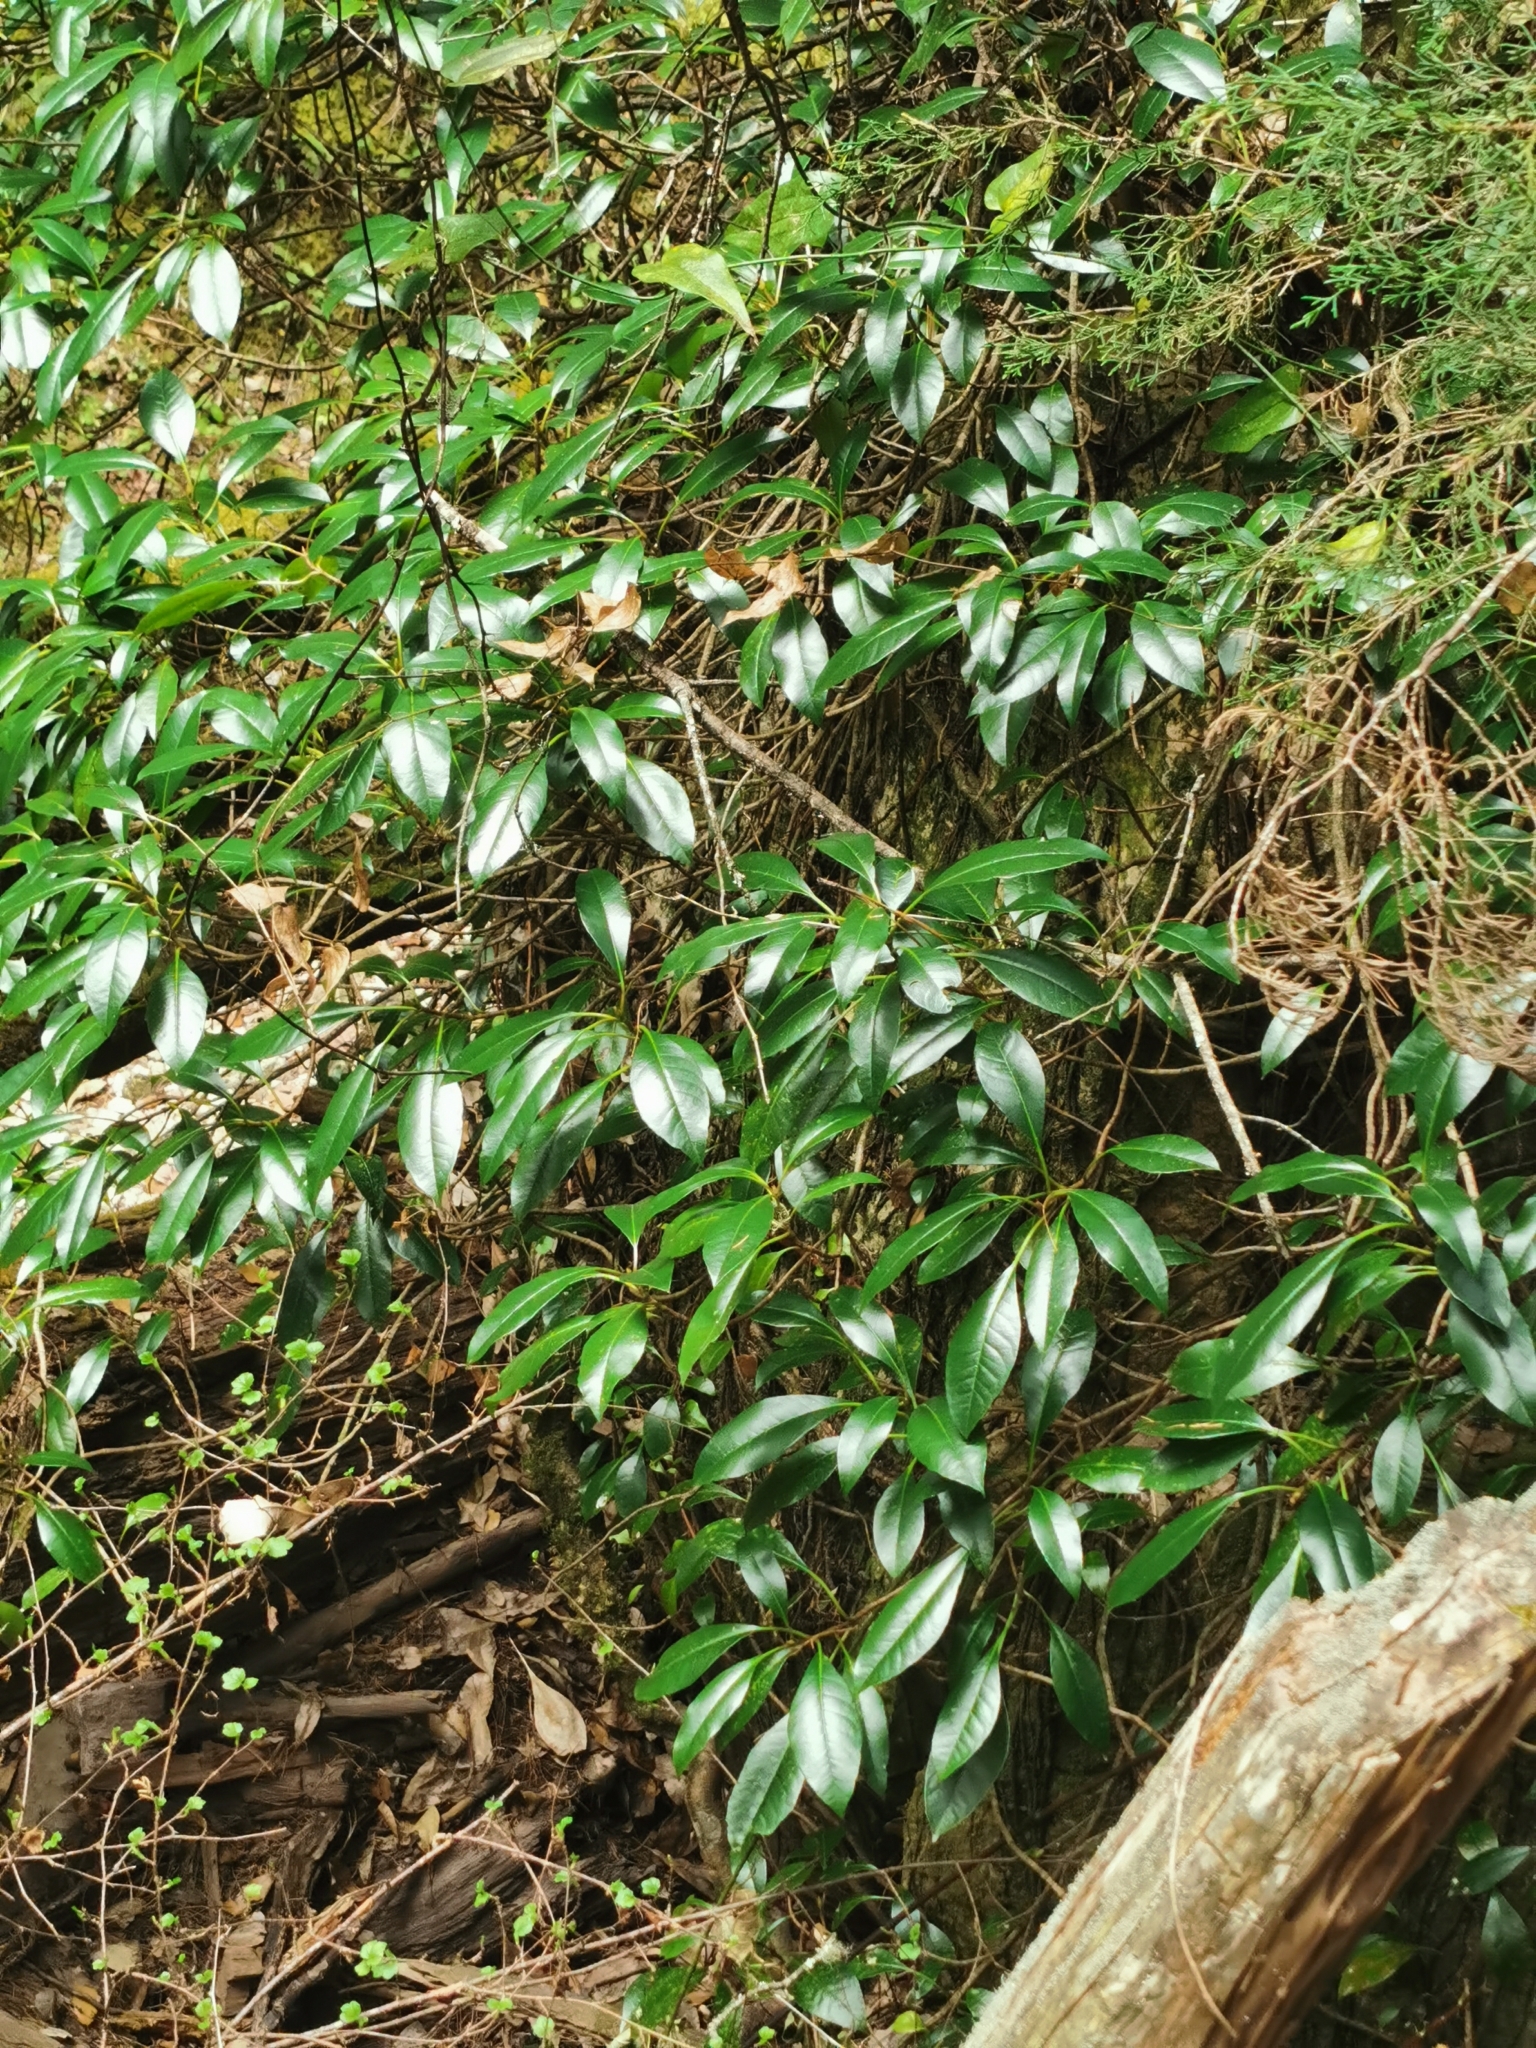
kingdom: Plantae
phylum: Tracheophyta
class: Magnoliopsida
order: Cornales
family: Hydrangeaceae
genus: Hydrangea
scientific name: Hydrangea seemannii
